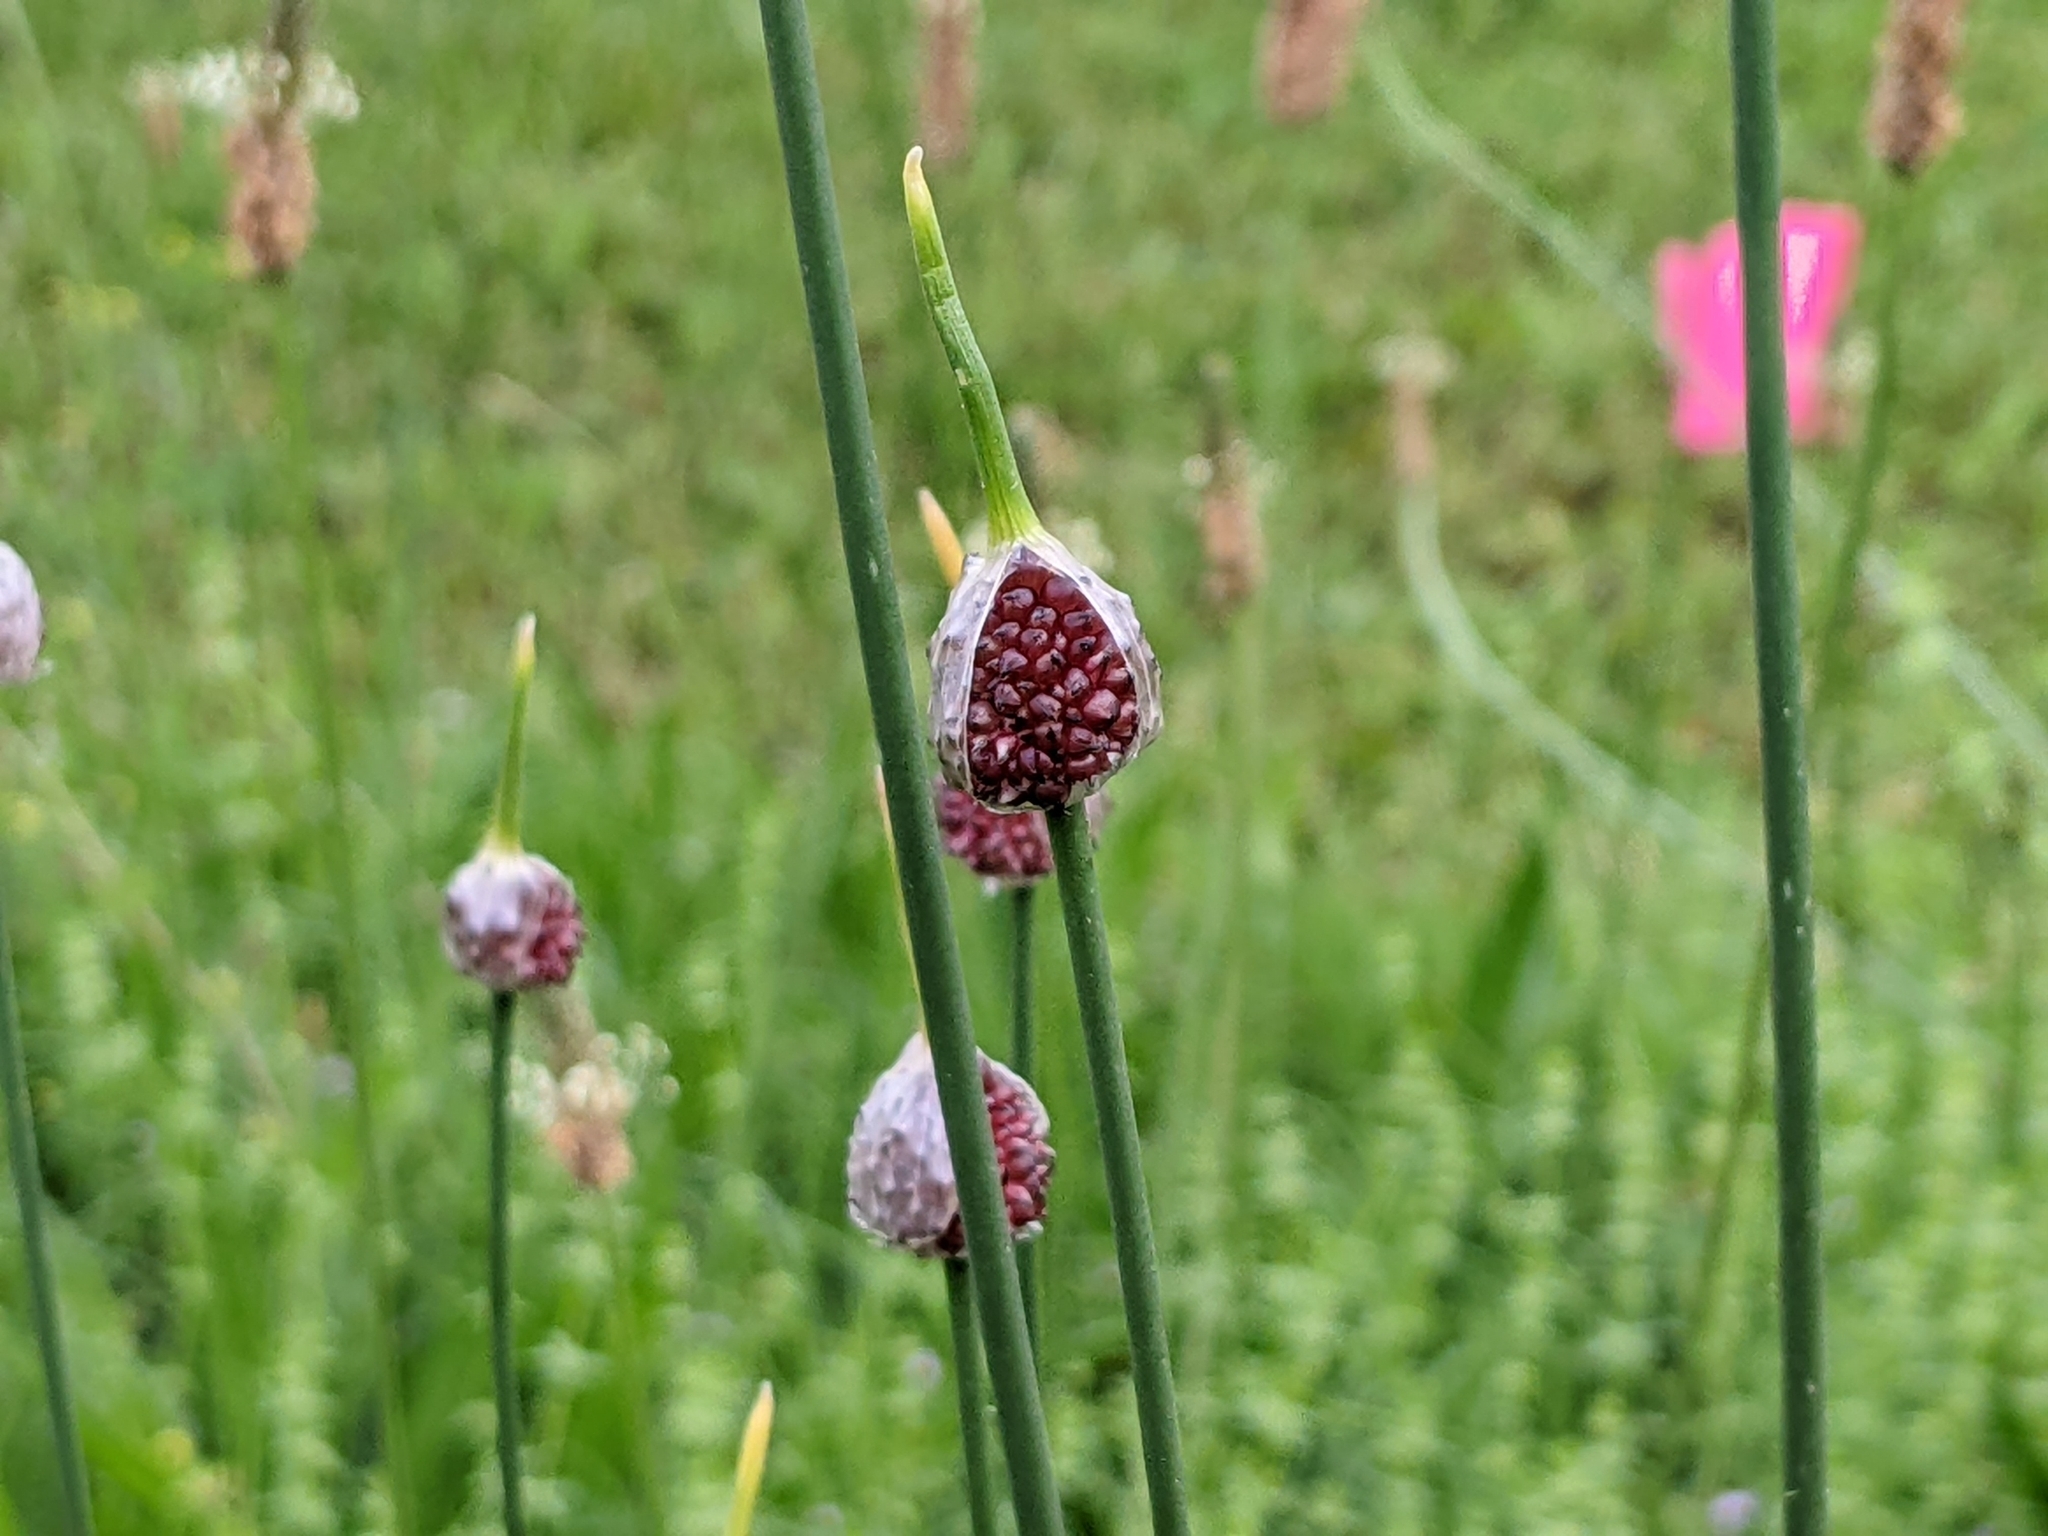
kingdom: Plantae
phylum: Tracheophyta
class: Liliopsida
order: Asparagales
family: Amaryllidaceae
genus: Allium
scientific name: Allium vineale
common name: Crow garlic
